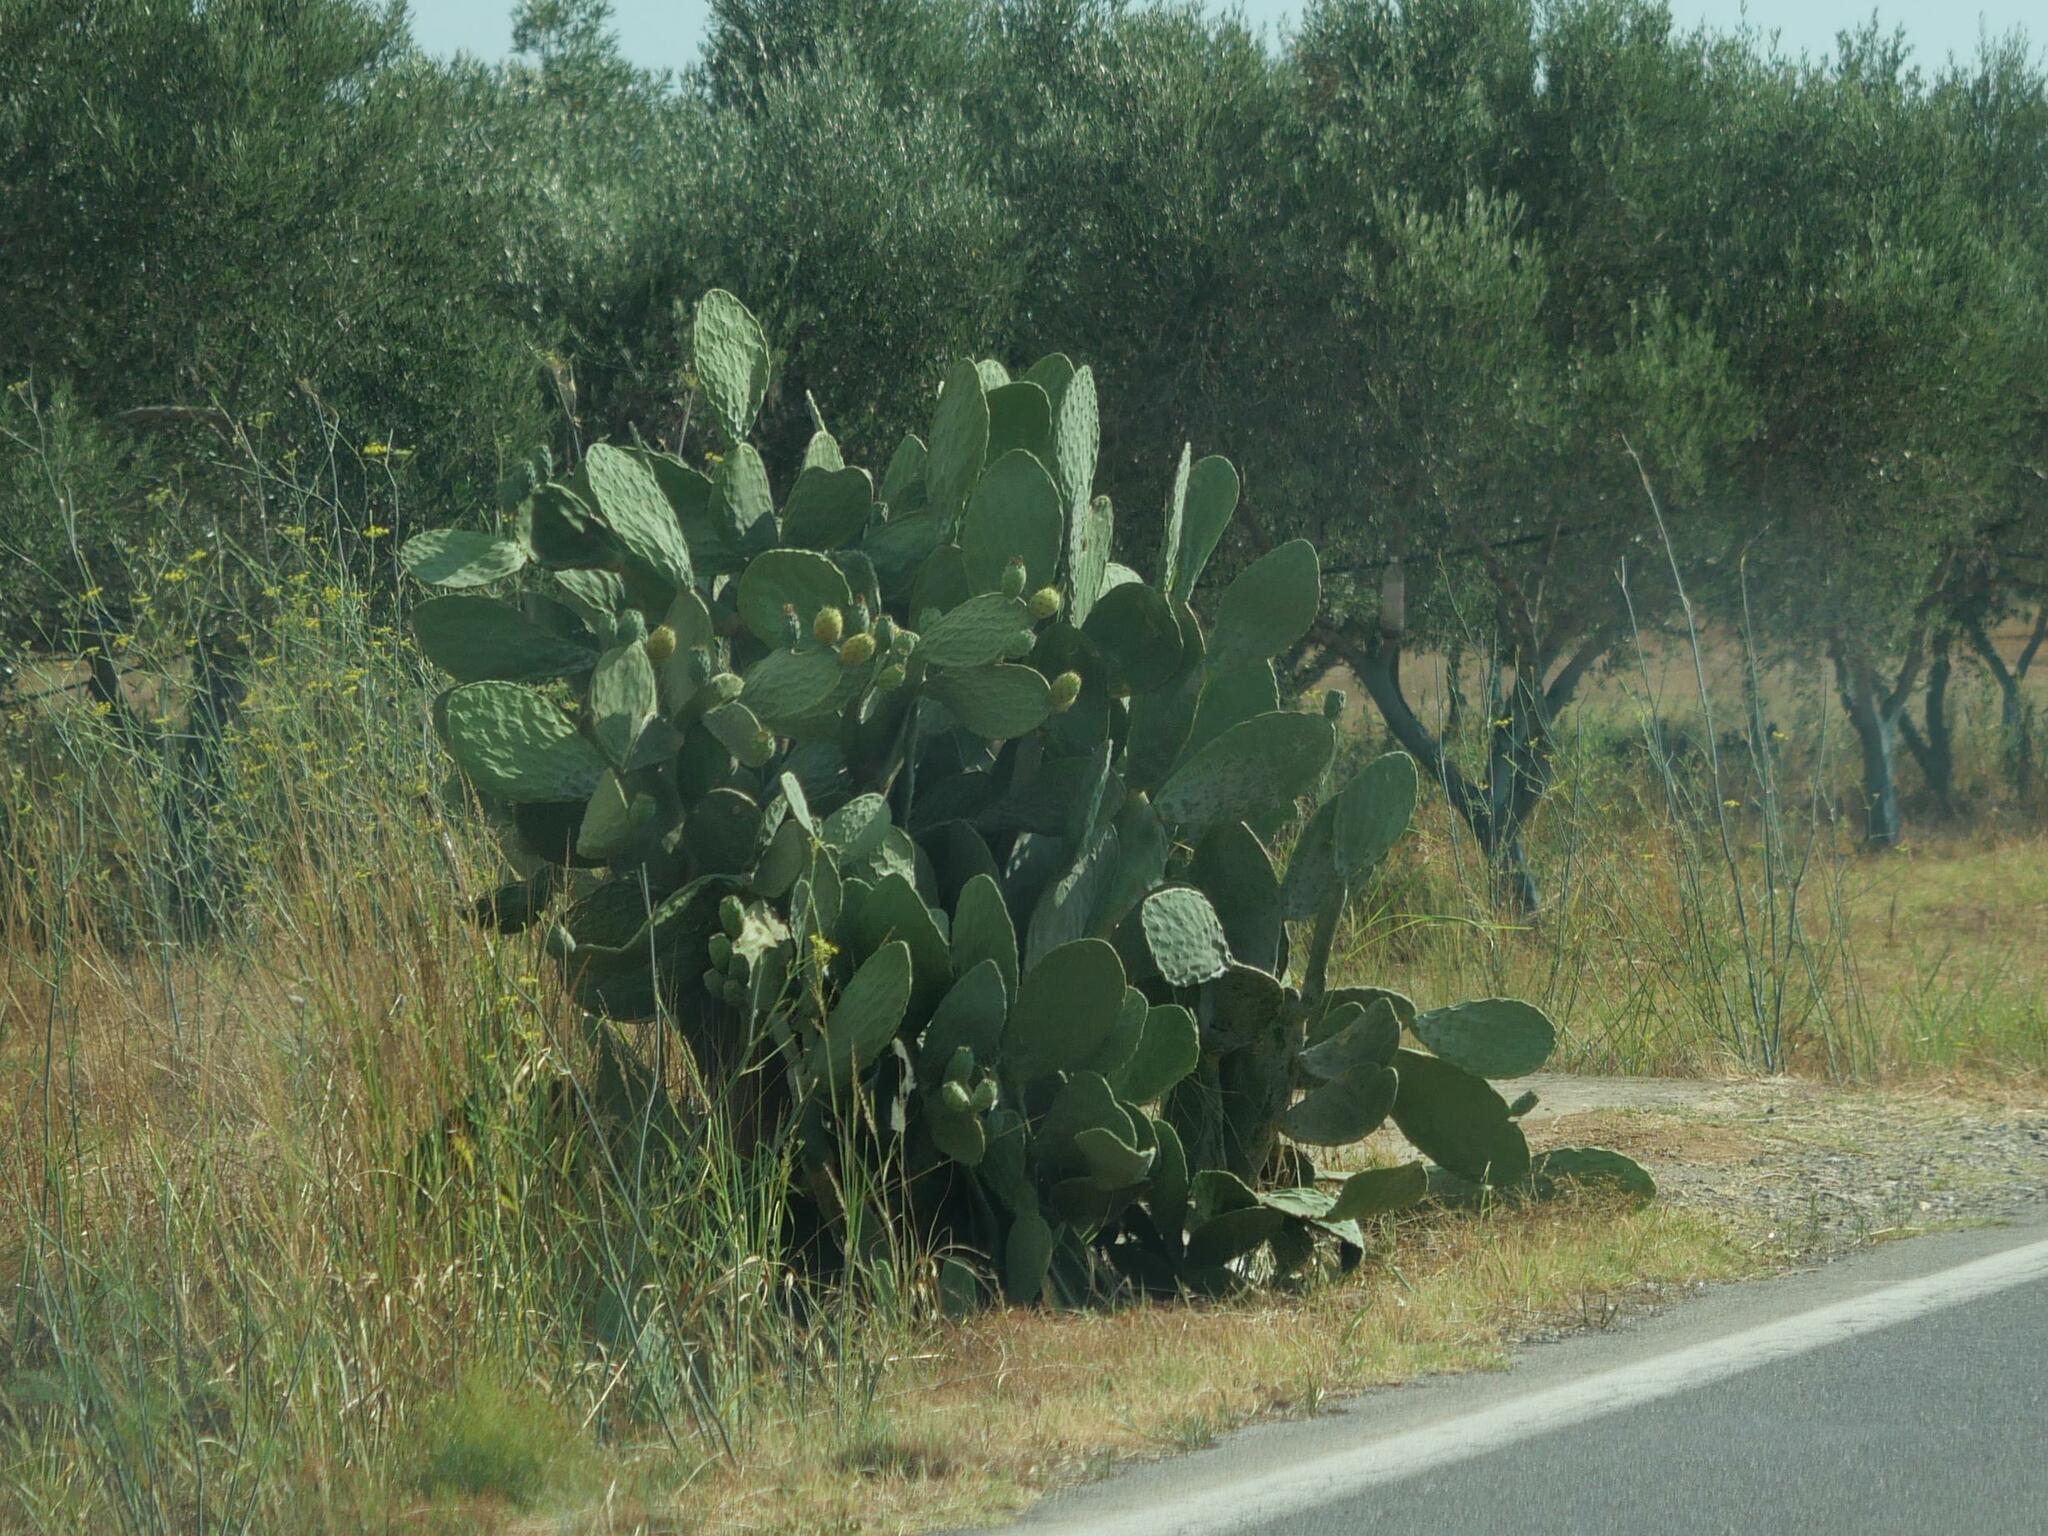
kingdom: Plantae
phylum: Tracheophyta
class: Magnoliopsida
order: Caryophyllales
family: Cactaceae
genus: Opuntia
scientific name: Opuntia ficus-indica
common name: Barbary fig
